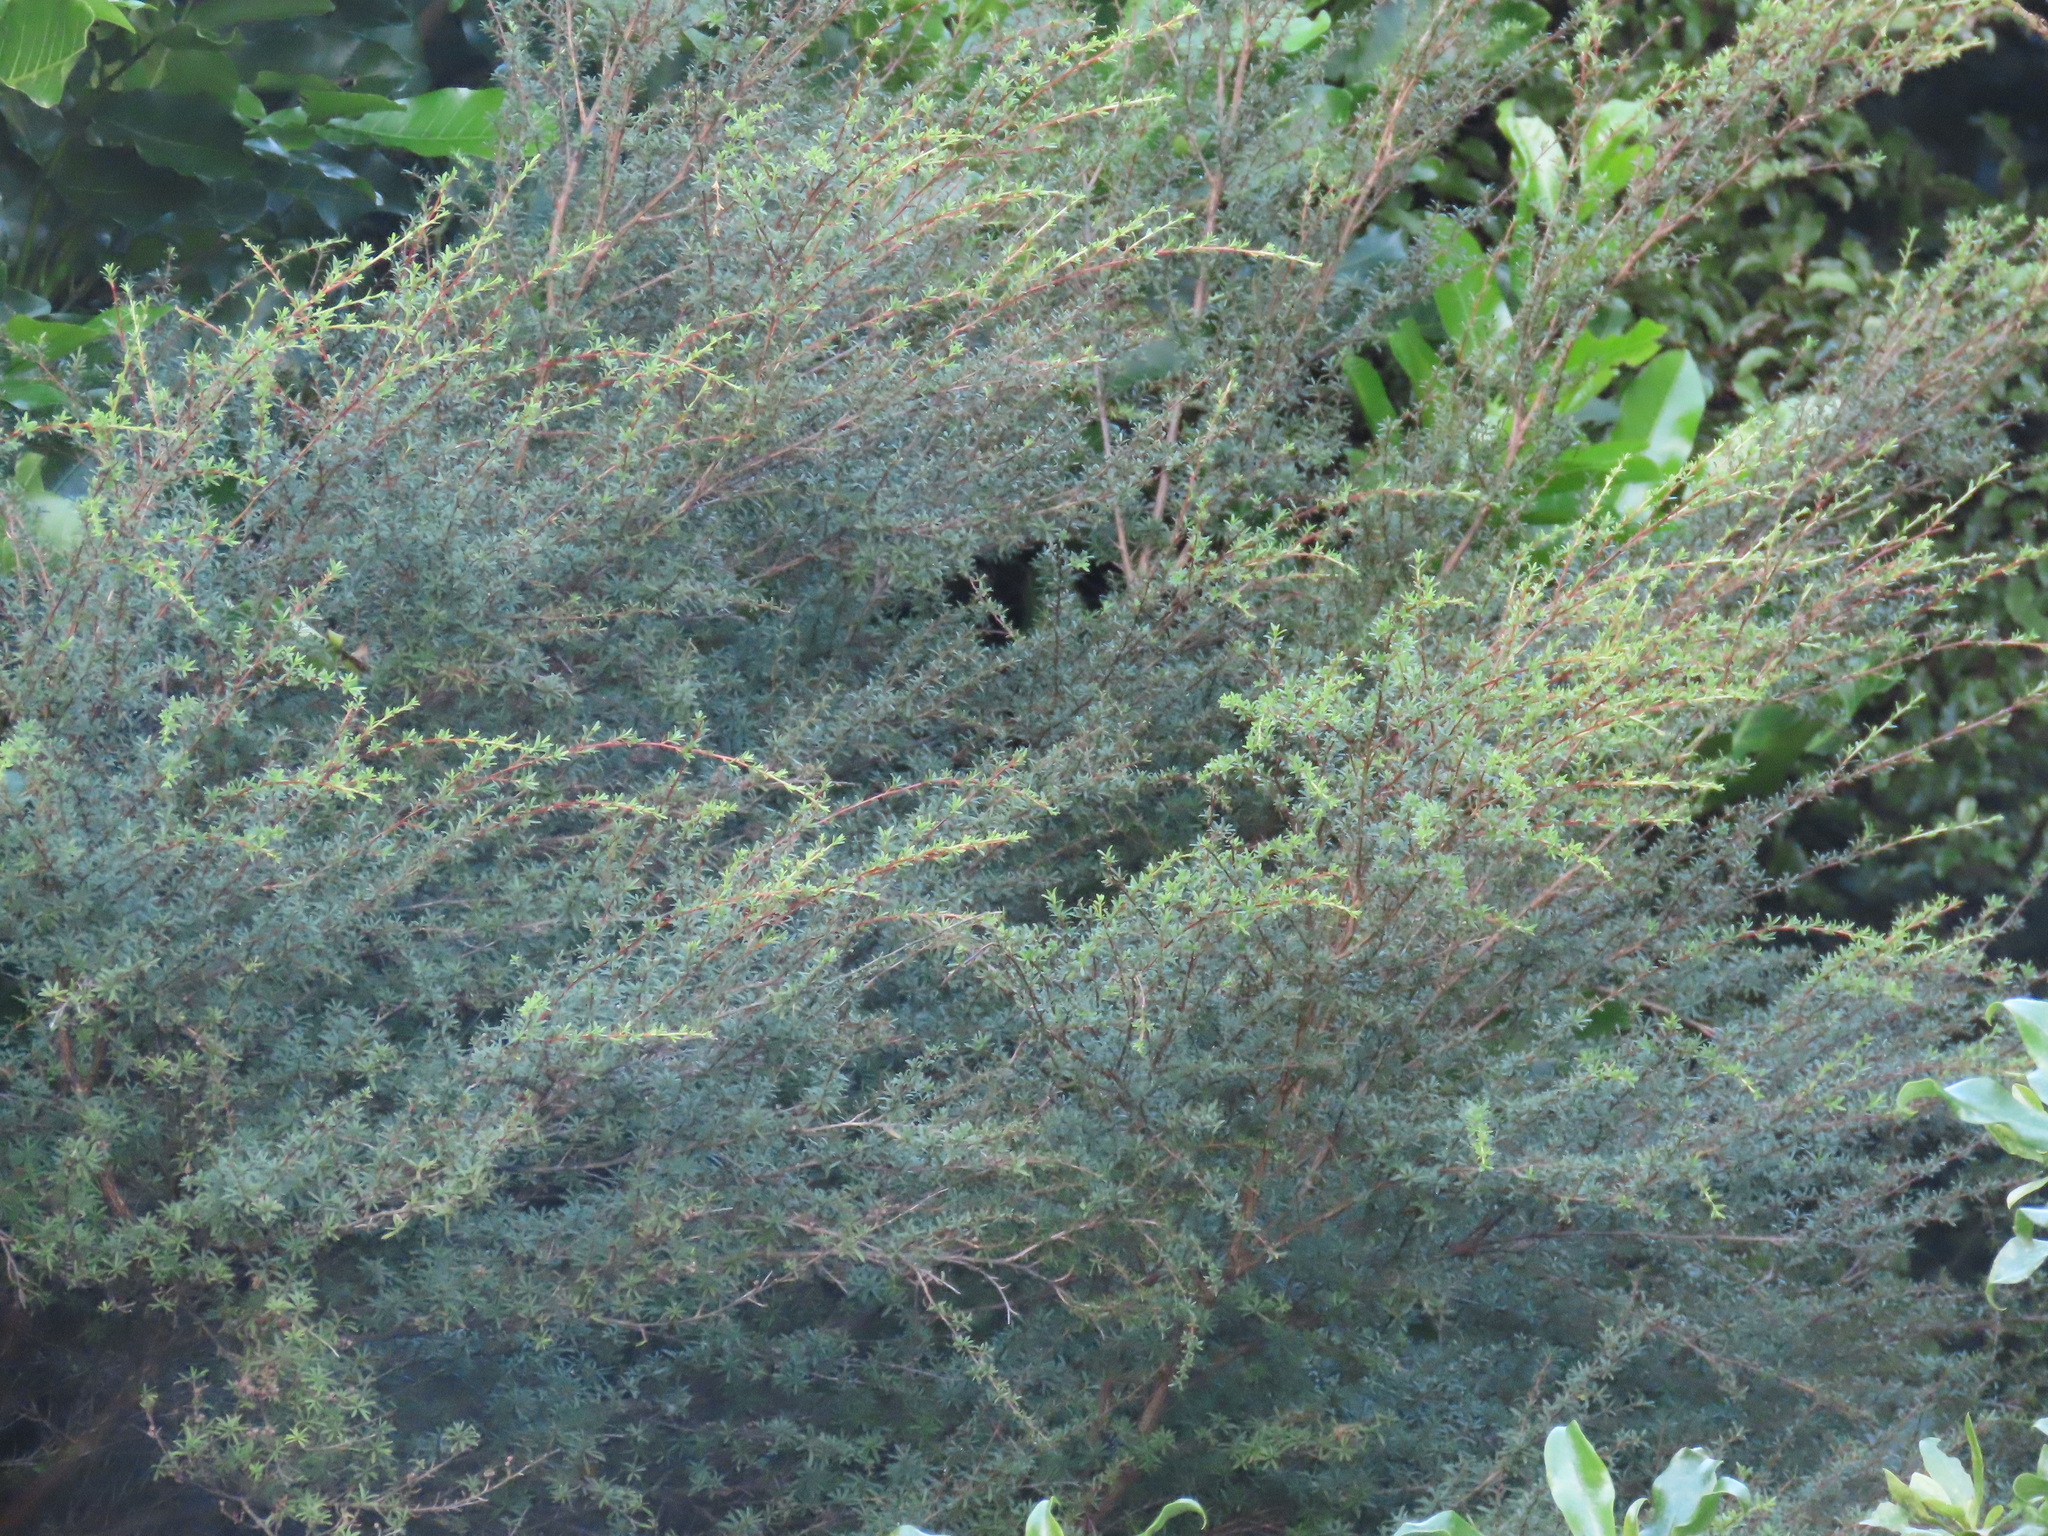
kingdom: Plantae
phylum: Tracheophyta
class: Magnoliopsida
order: Myrtales
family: Myrtaceae
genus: Kunzea
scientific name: Kunzea robusta
